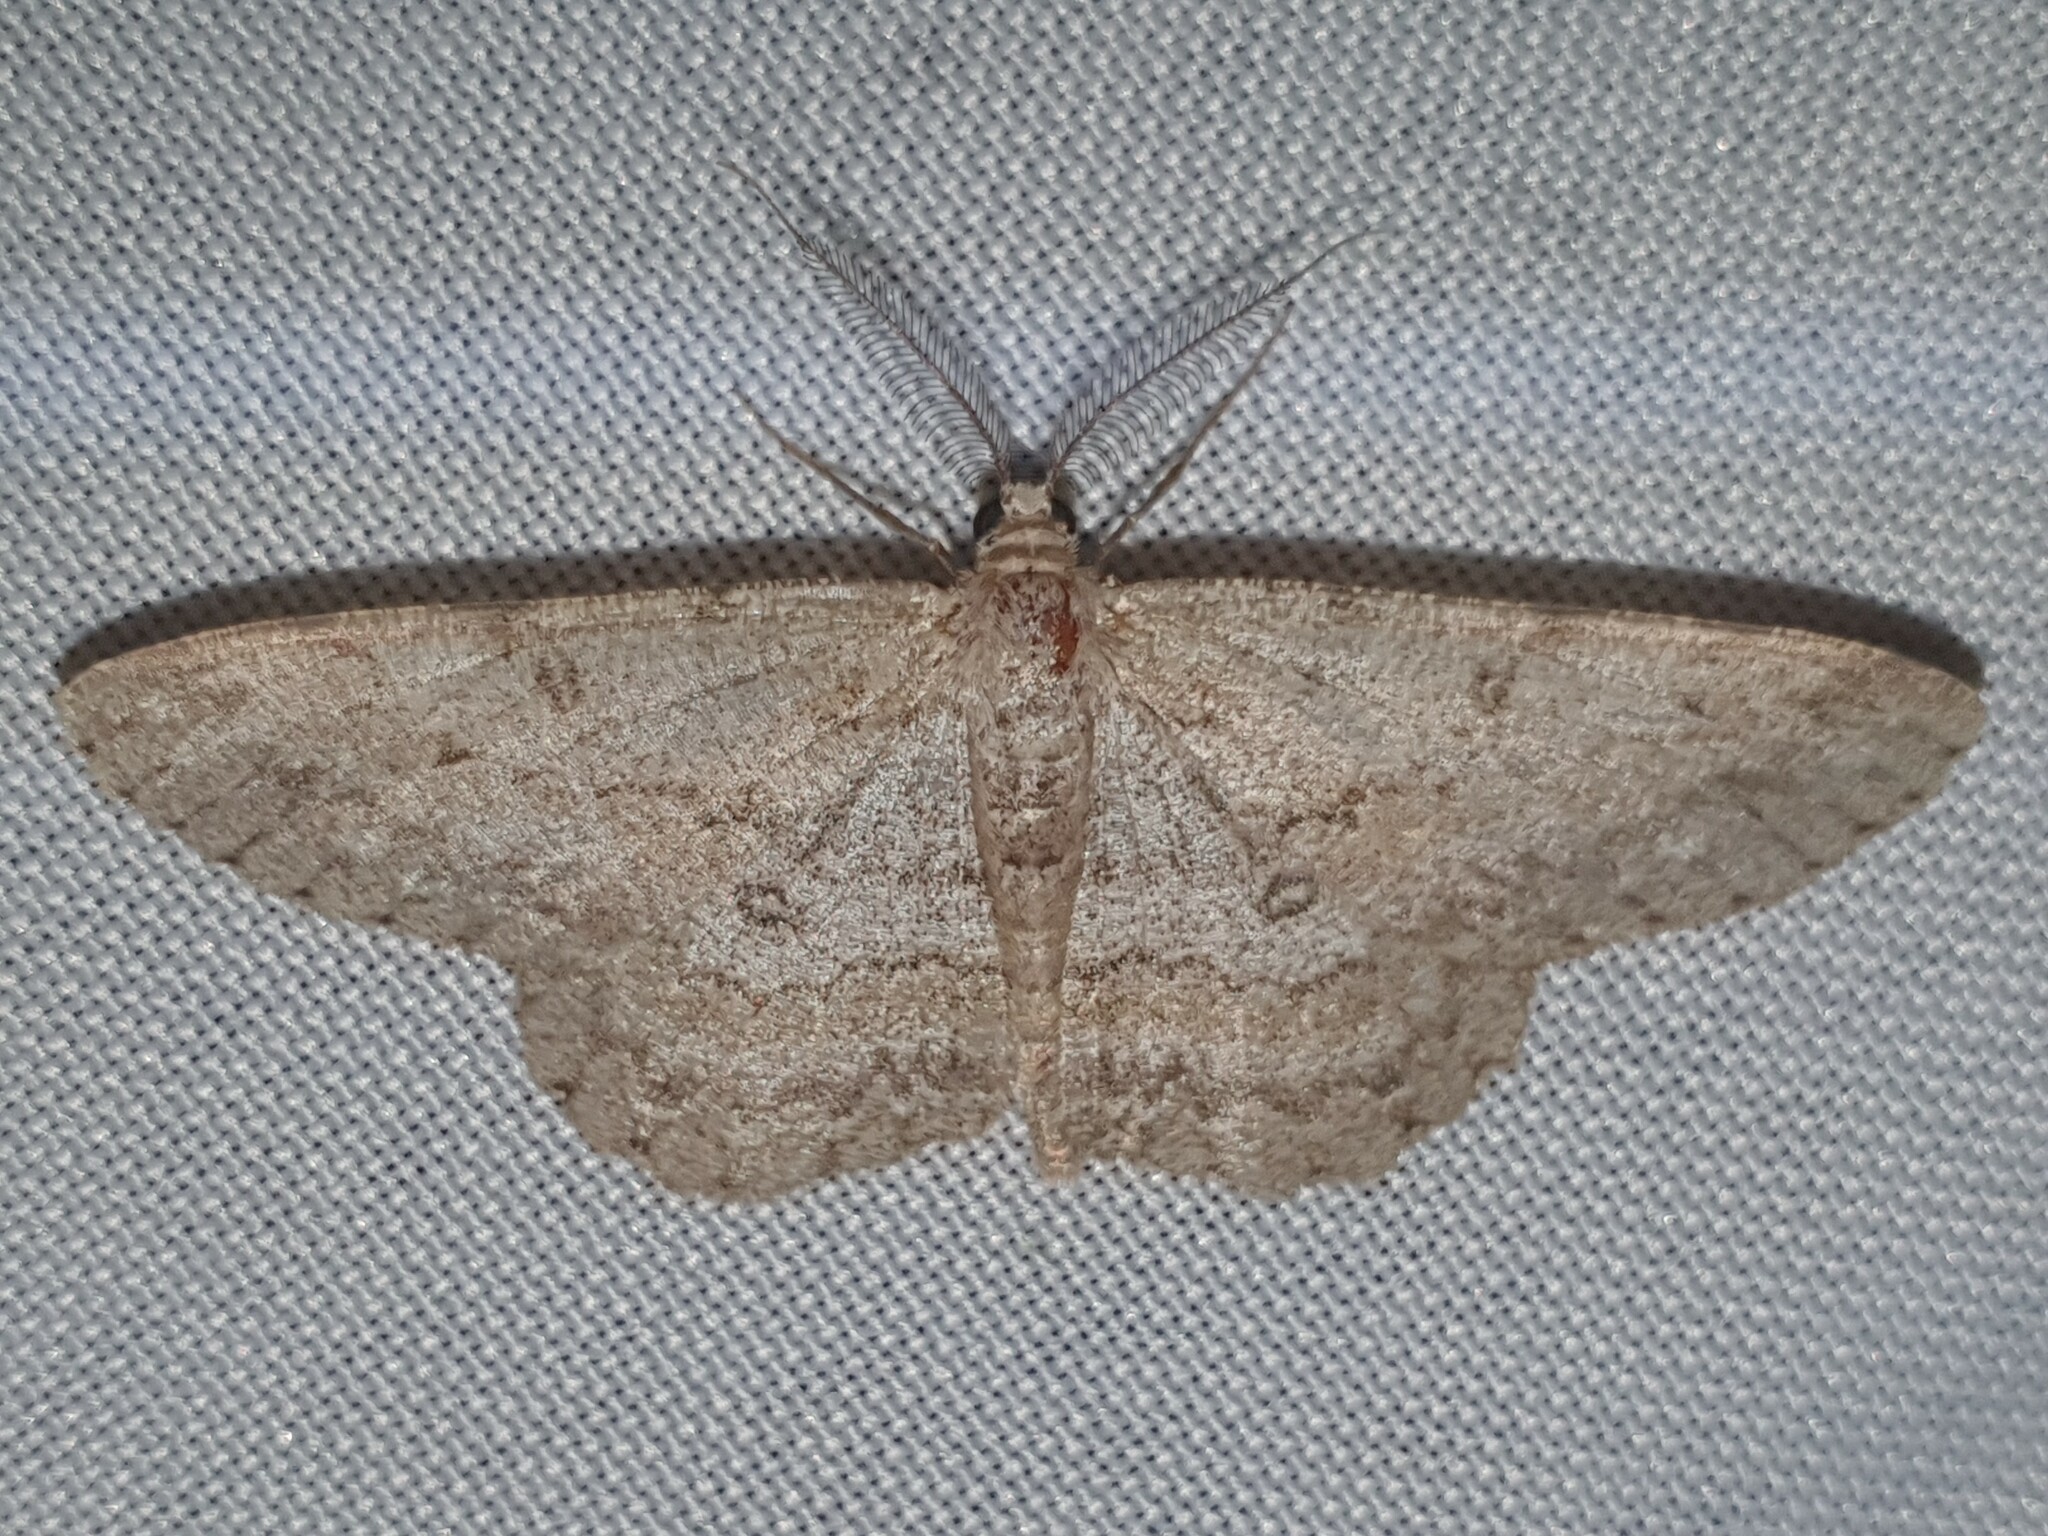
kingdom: Animalia
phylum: Arthropoda
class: Insecta
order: Lepidoptera
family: Geometridae
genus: Hypomecis
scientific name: Hypomecis punctinalis
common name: Pale oak beauty
